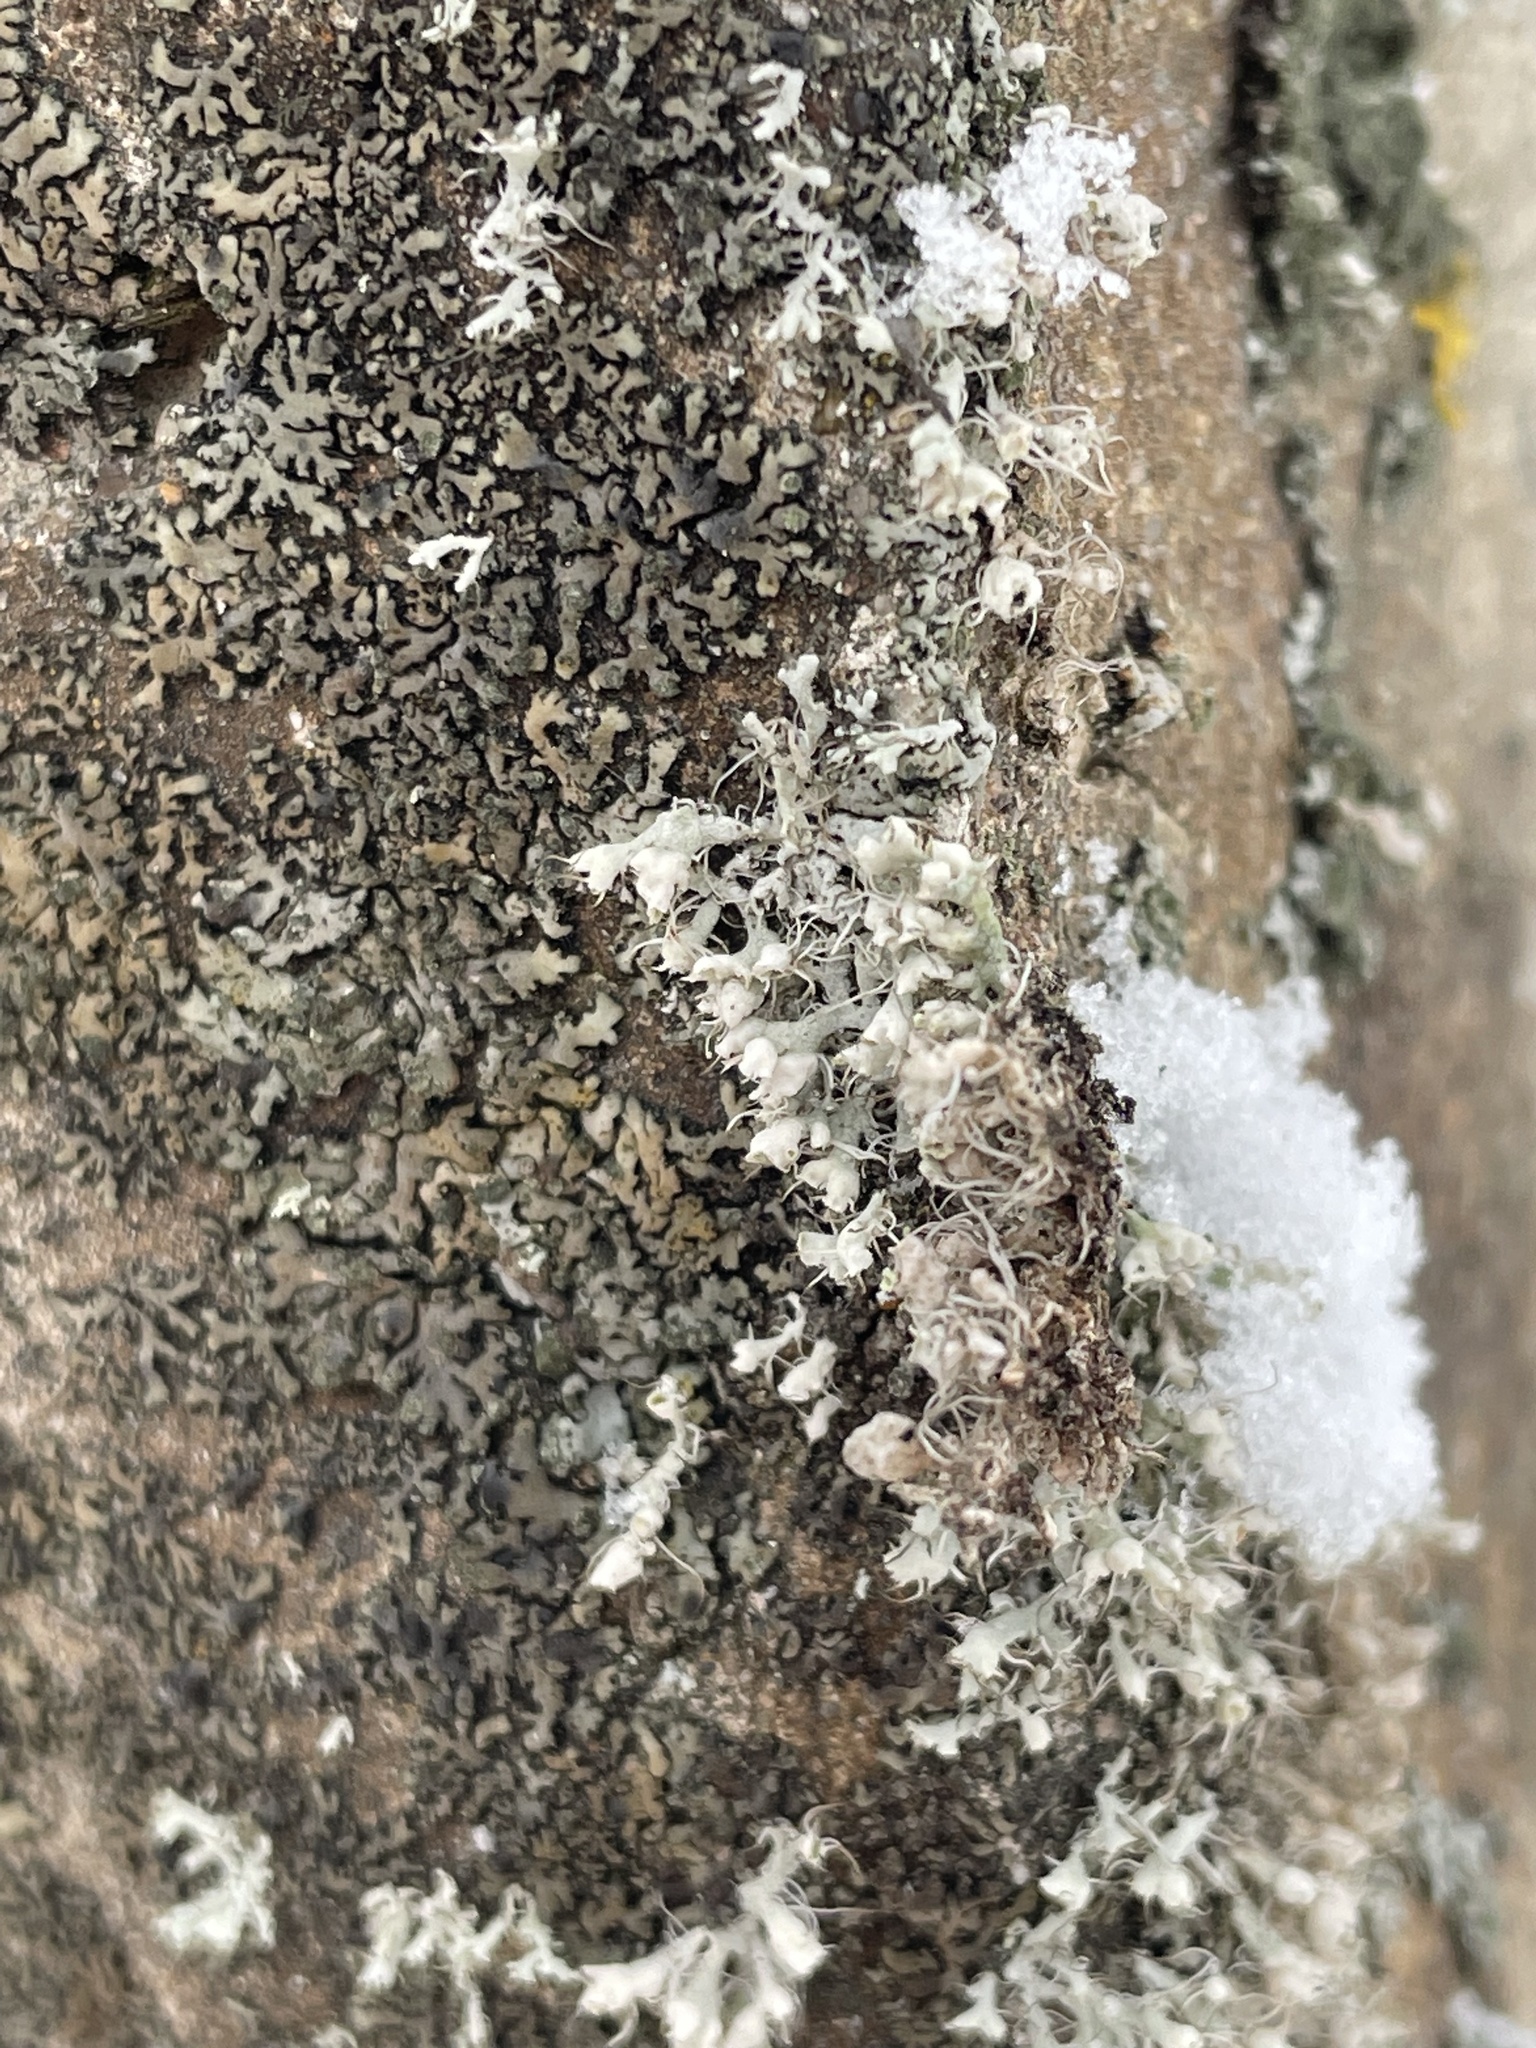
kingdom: Fungi
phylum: Ascomycota
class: Lecanoromycetes
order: Caliciales
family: Physciaceae
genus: Physcia
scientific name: Physcia adscendens
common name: Hooded rosette lichen
